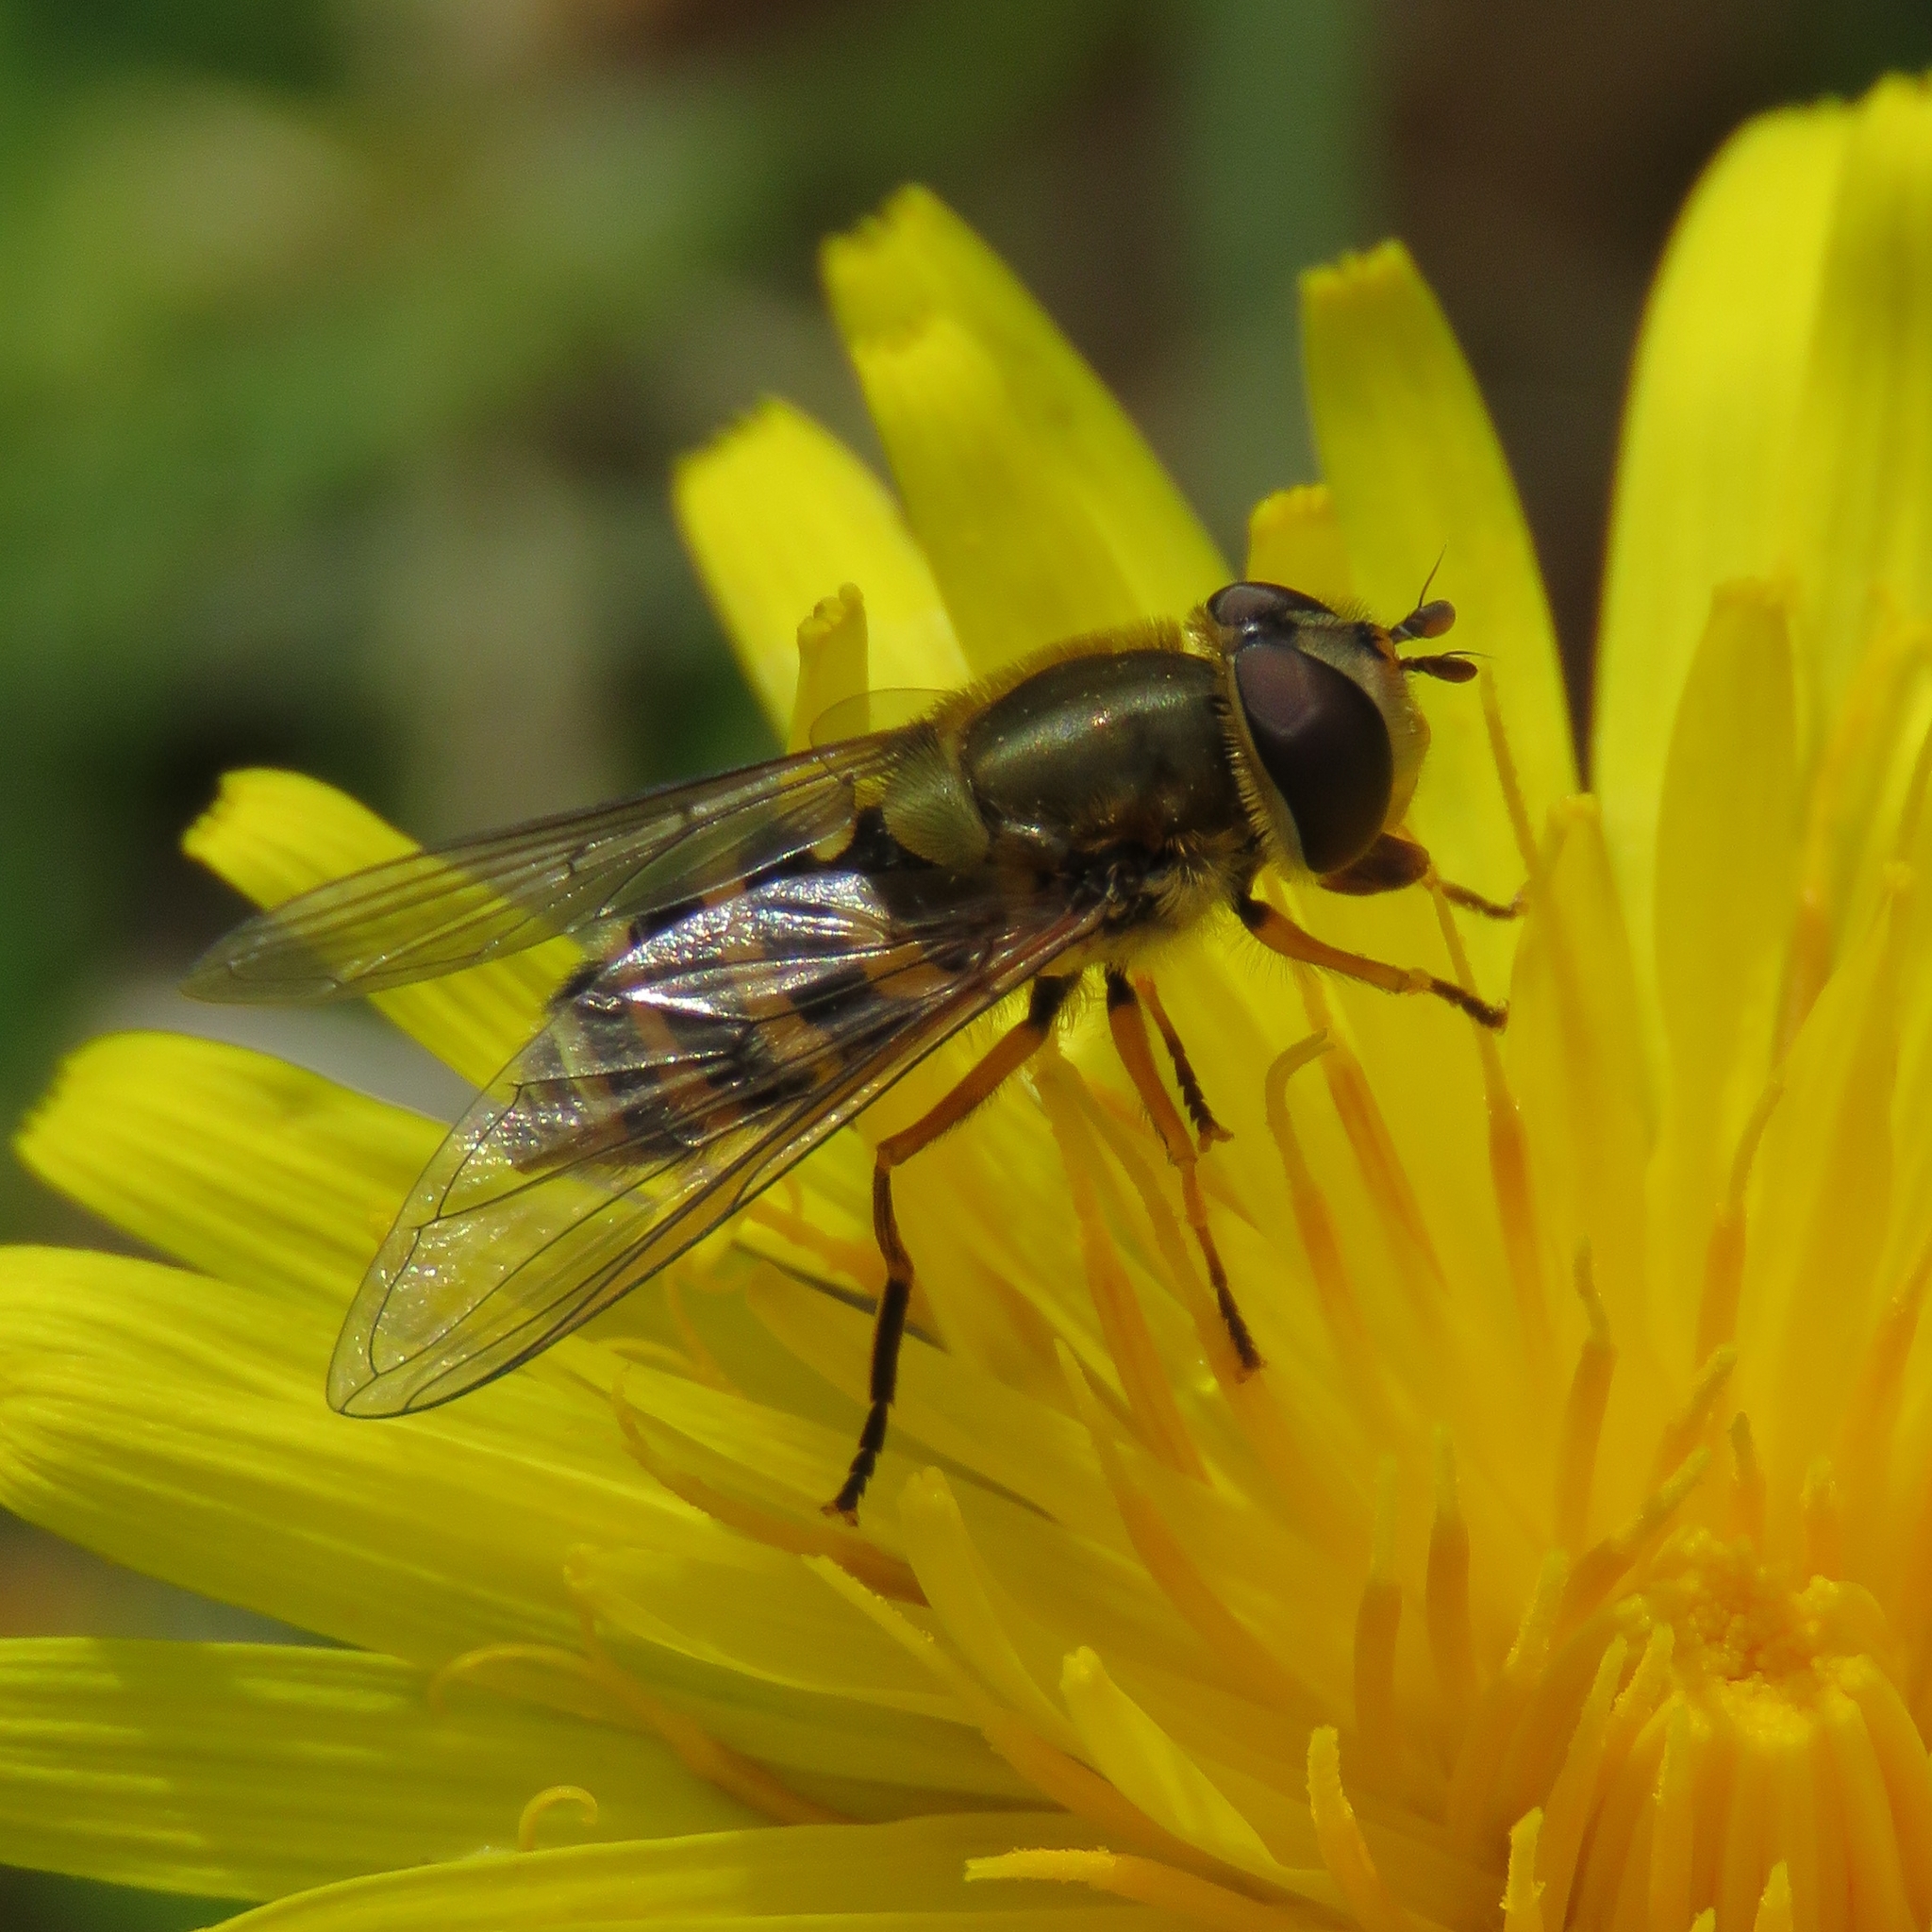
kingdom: Animalia
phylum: Arthropoda
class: Insecta
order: Diptera
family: Syrphidae
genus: Syrphus
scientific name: Syrphus ribesii
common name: Common flower fly
